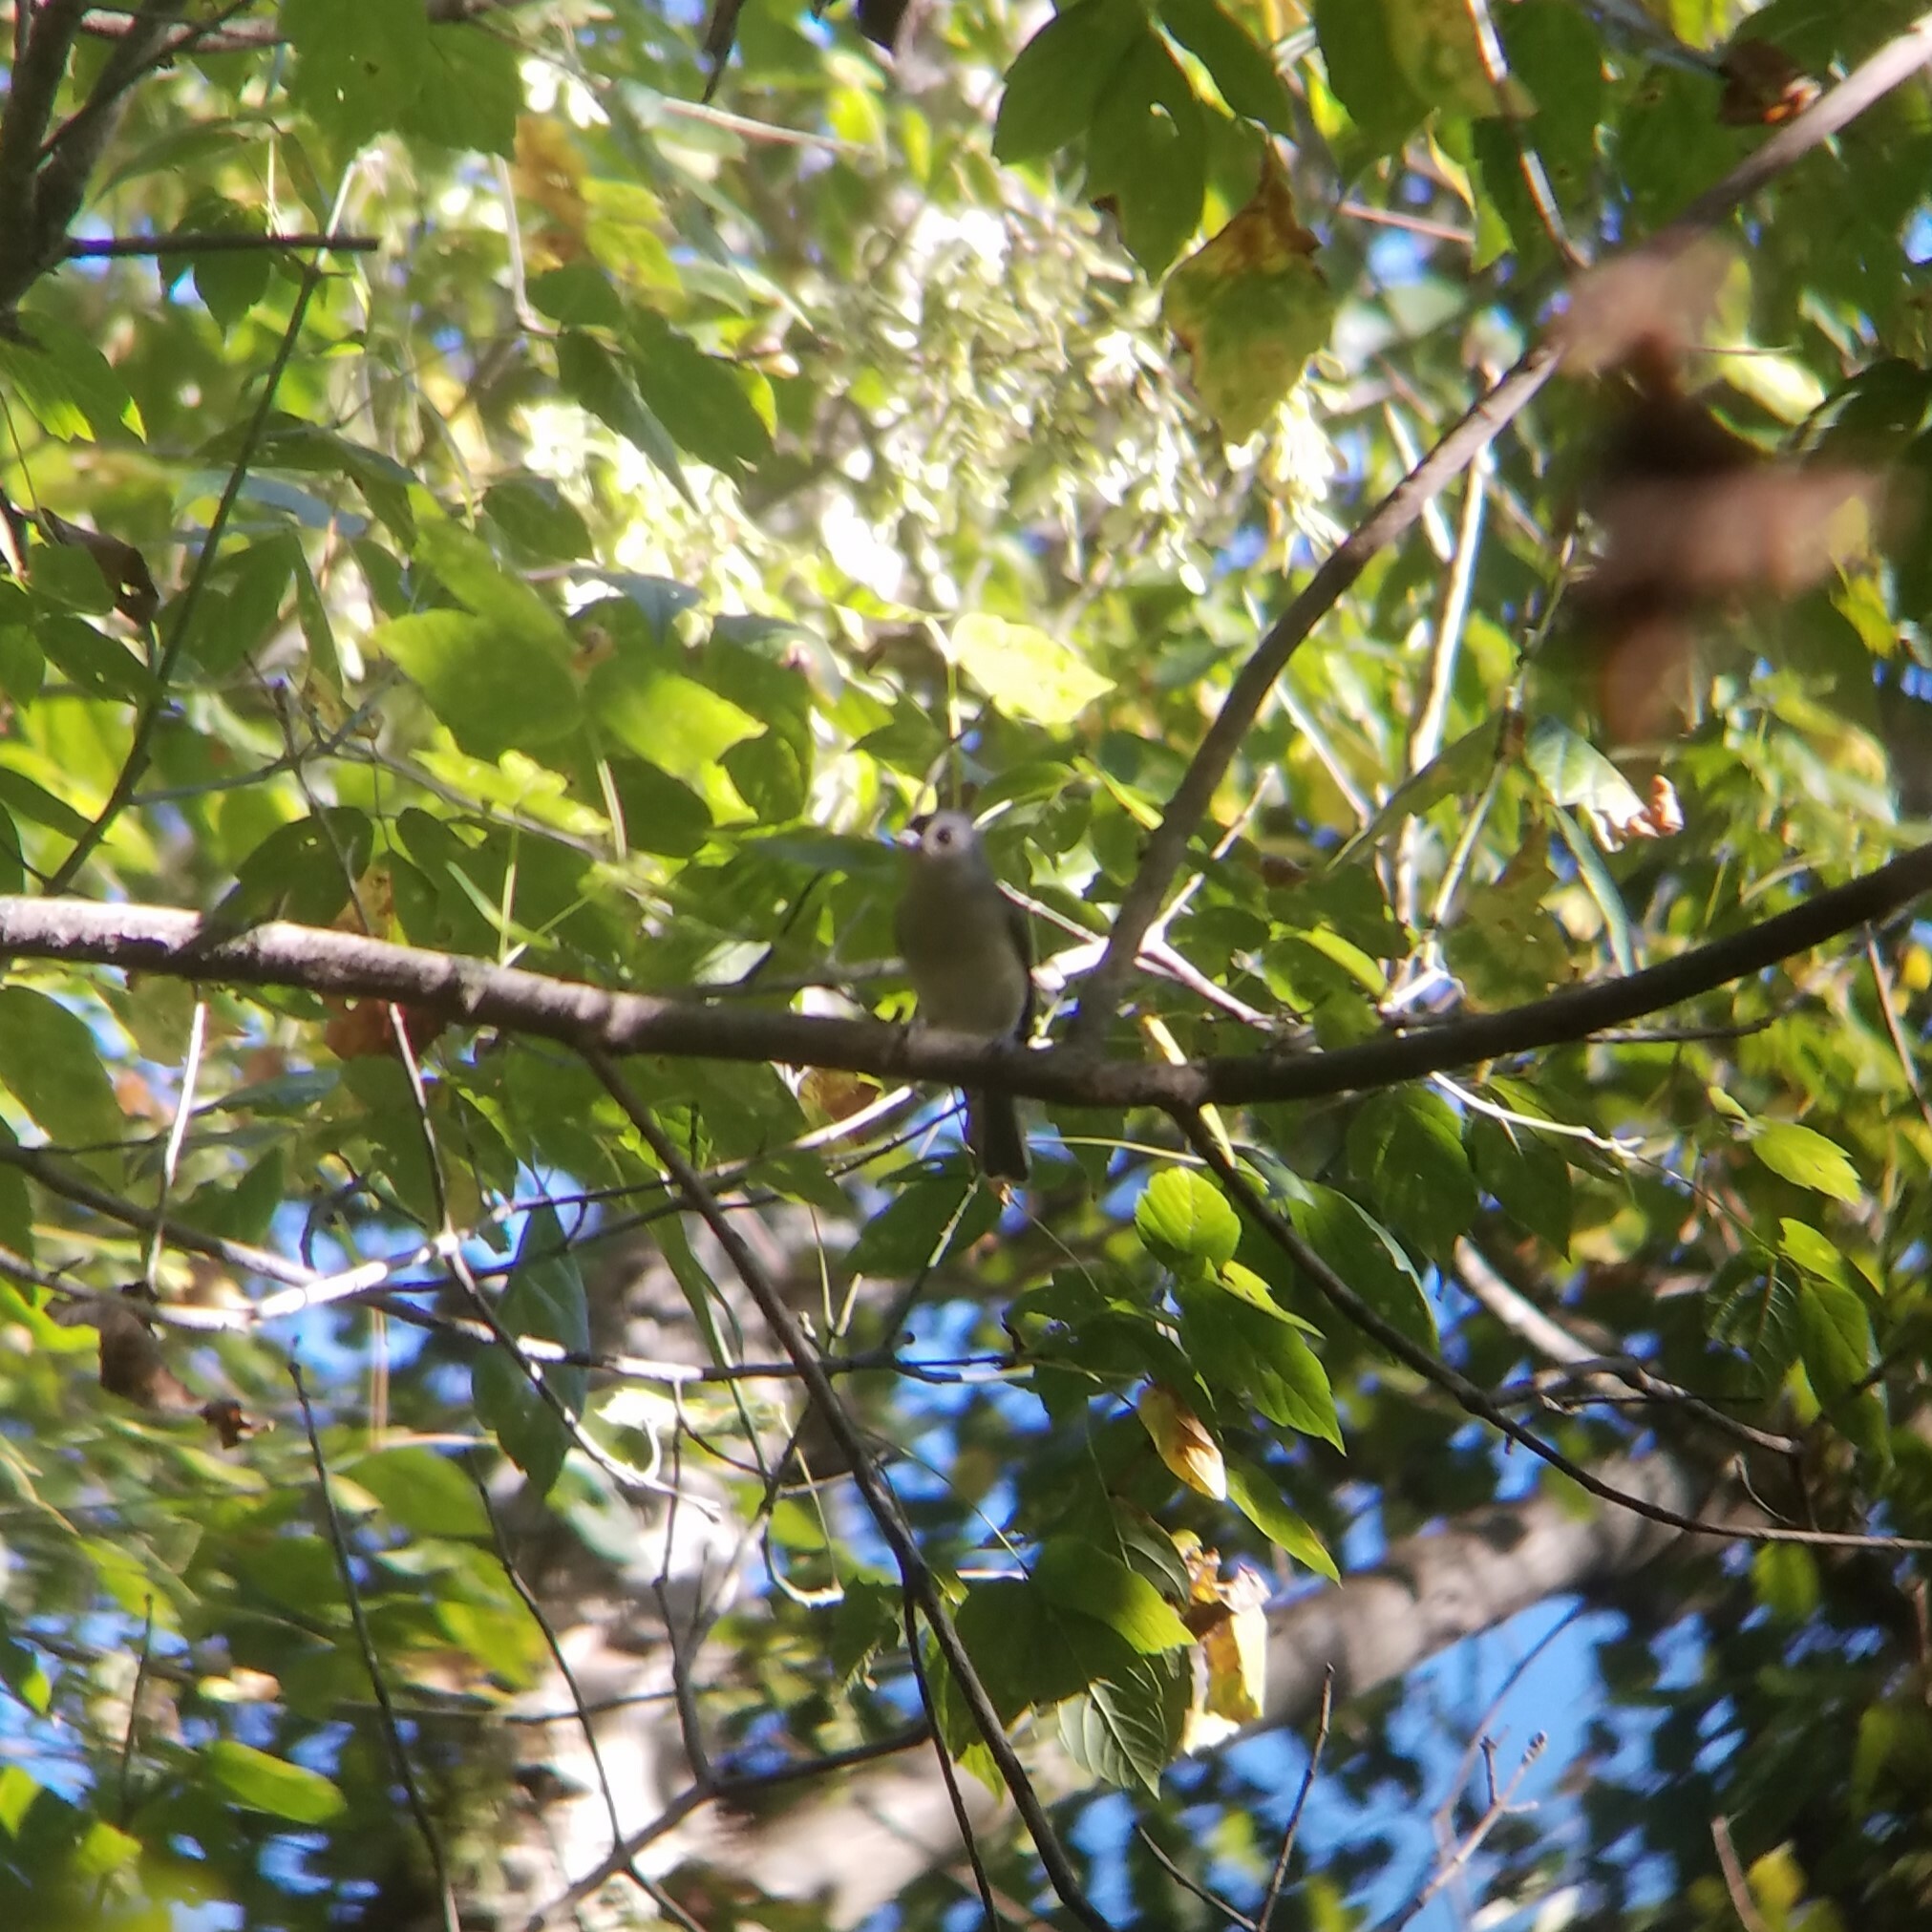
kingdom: Animalia
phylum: Chordata
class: Aves
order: Passeriformes
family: Paridae
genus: Baeolophus
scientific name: Baeolophus bicolor
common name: Tufted titmouse
